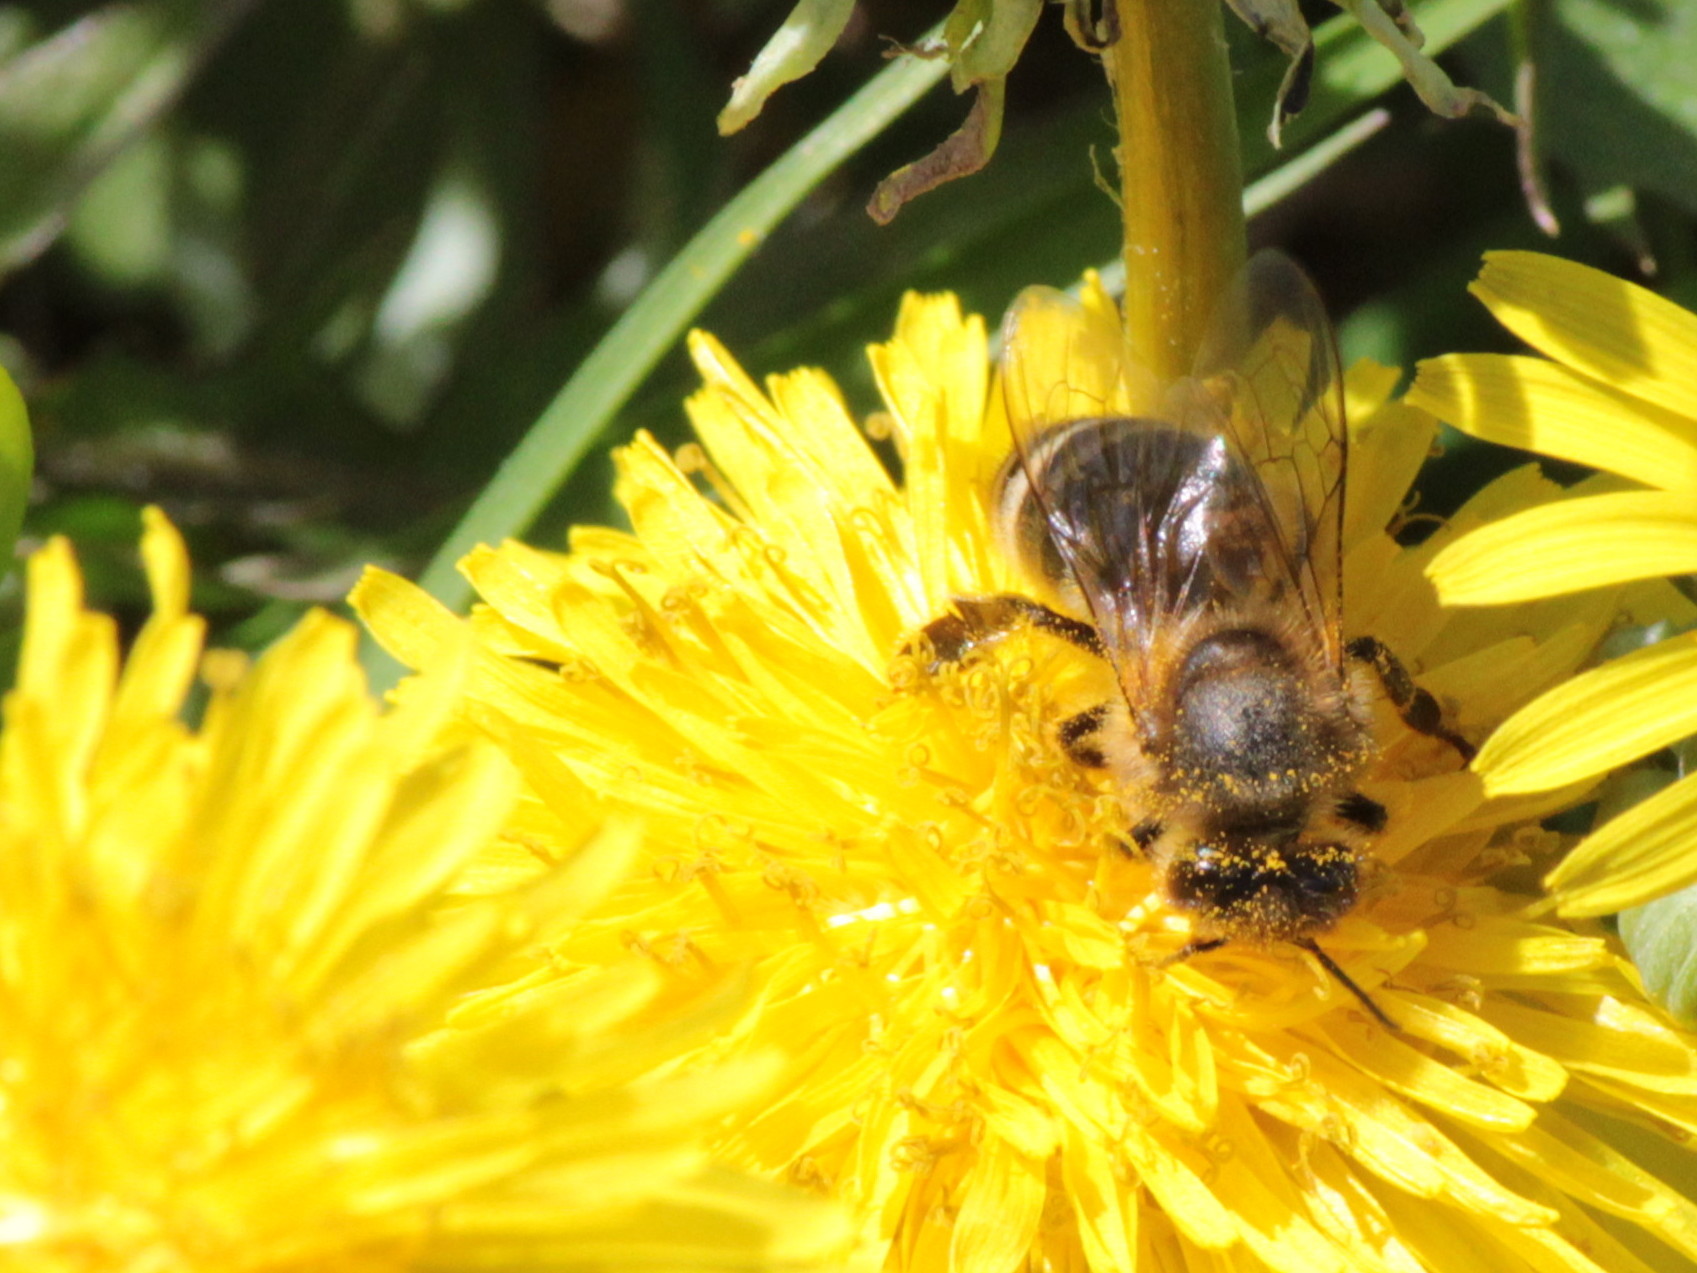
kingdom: Animalia
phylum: Arthropoda
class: Insecta
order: Hymenoptera
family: Apidae
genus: Apis
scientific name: Apis mellifera
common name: Honey bee
